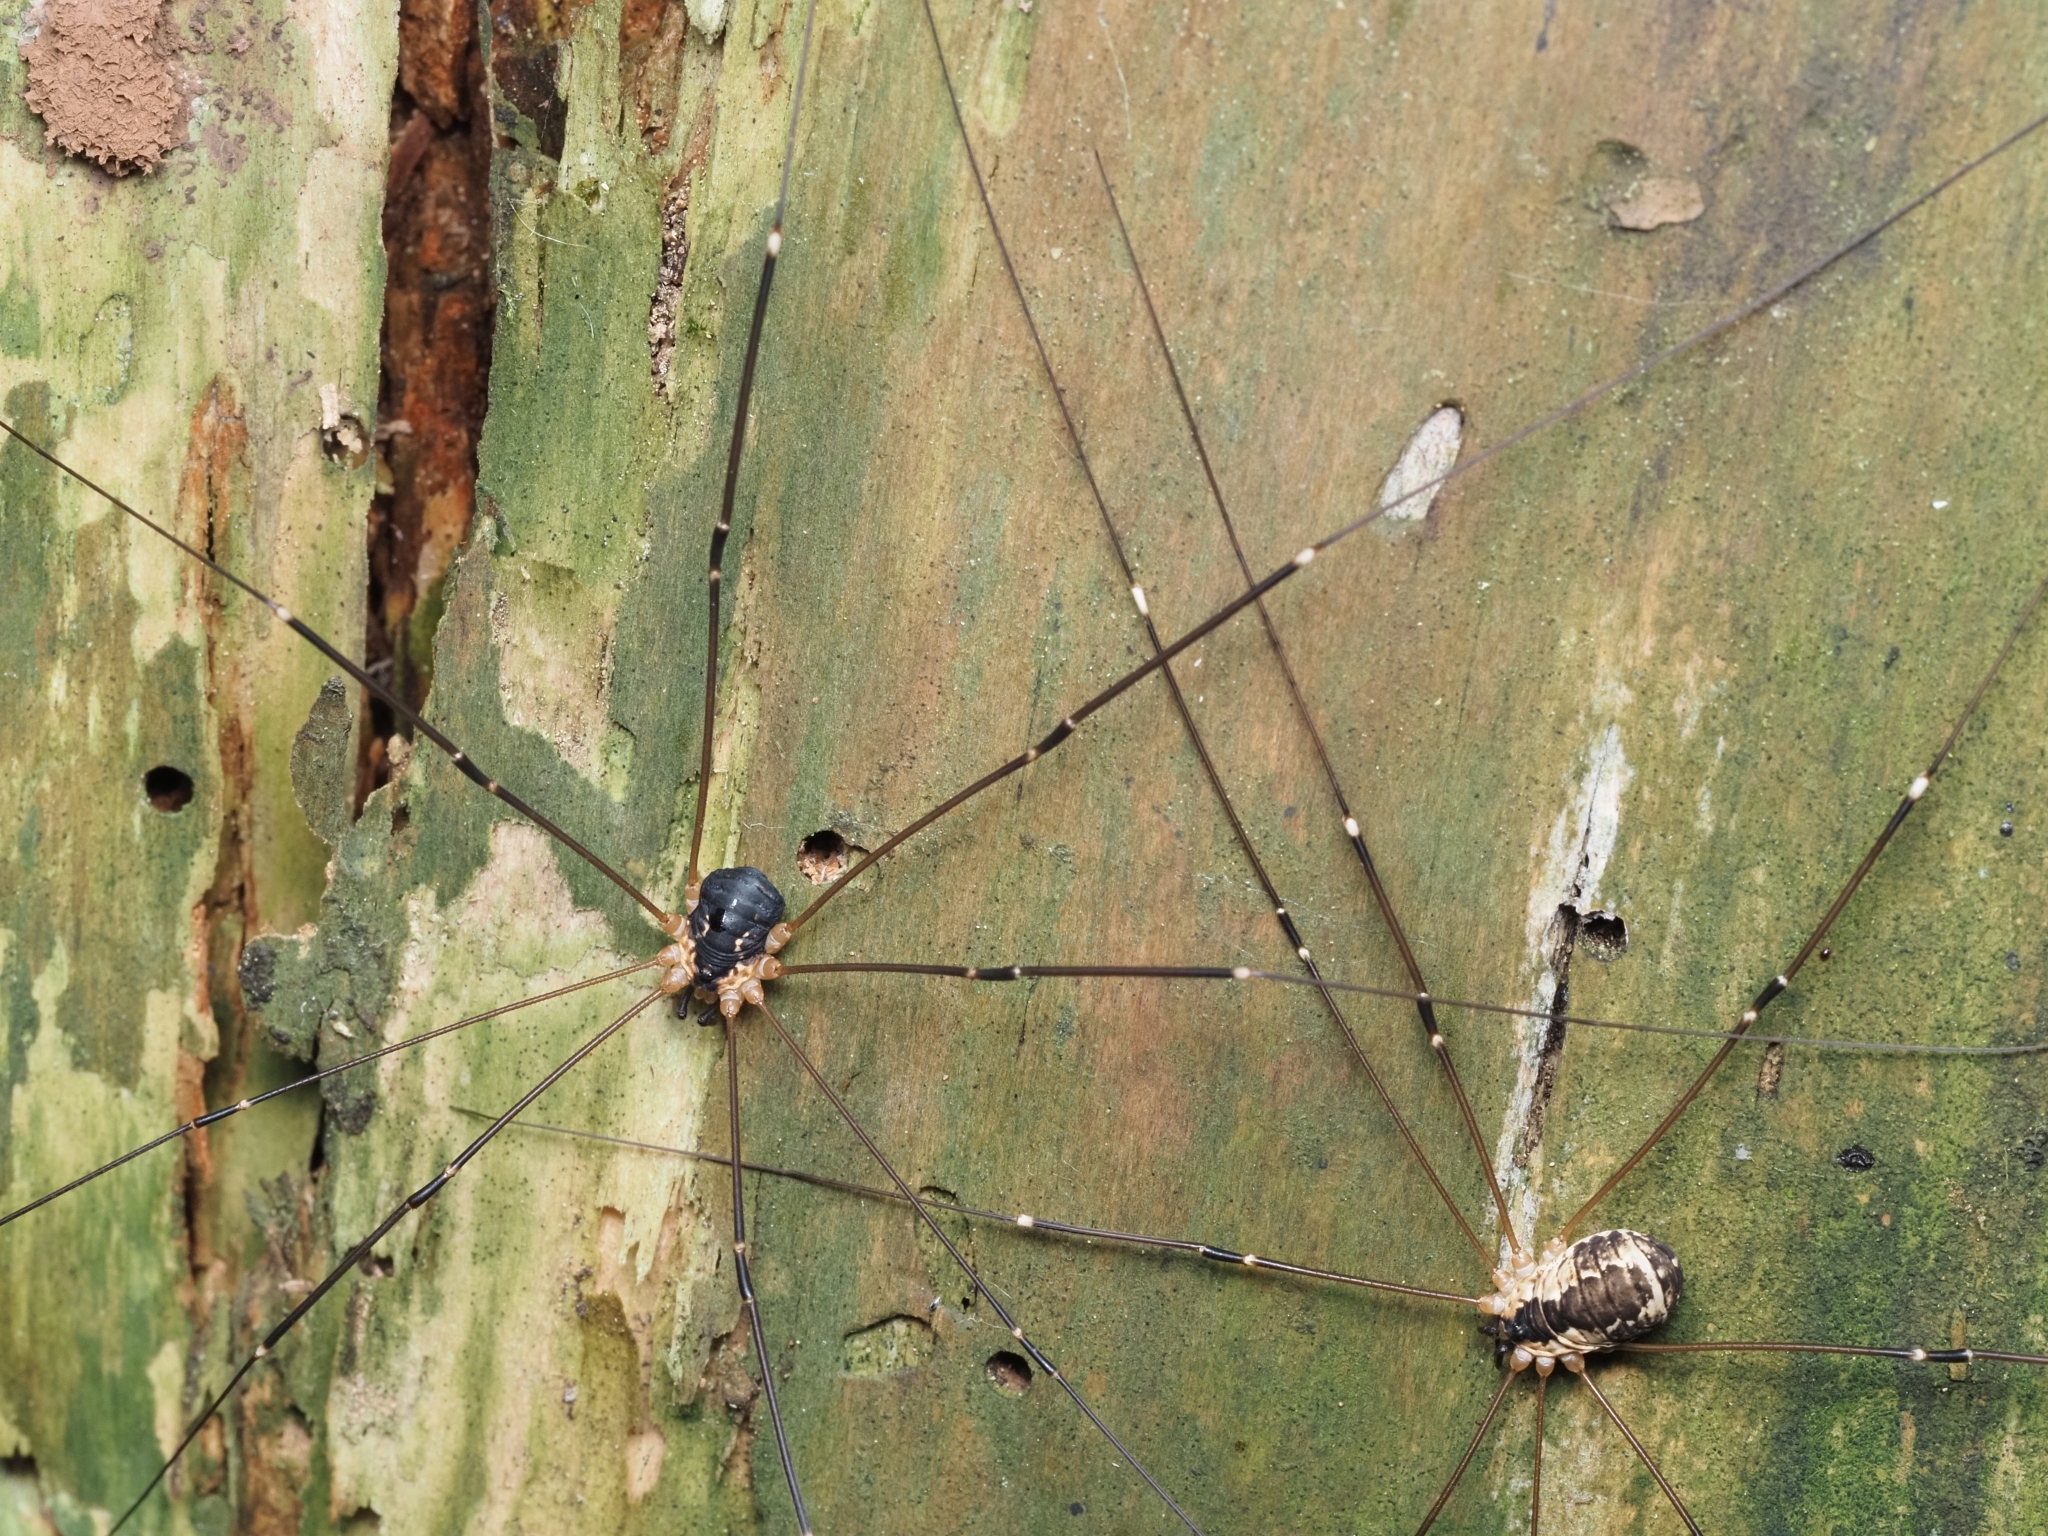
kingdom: Animalia
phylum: Arthropoda
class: Arachnida
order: Opiliones
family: Sclerosomatidae
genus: Leiobunum
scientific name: Leiobunum rupestre
